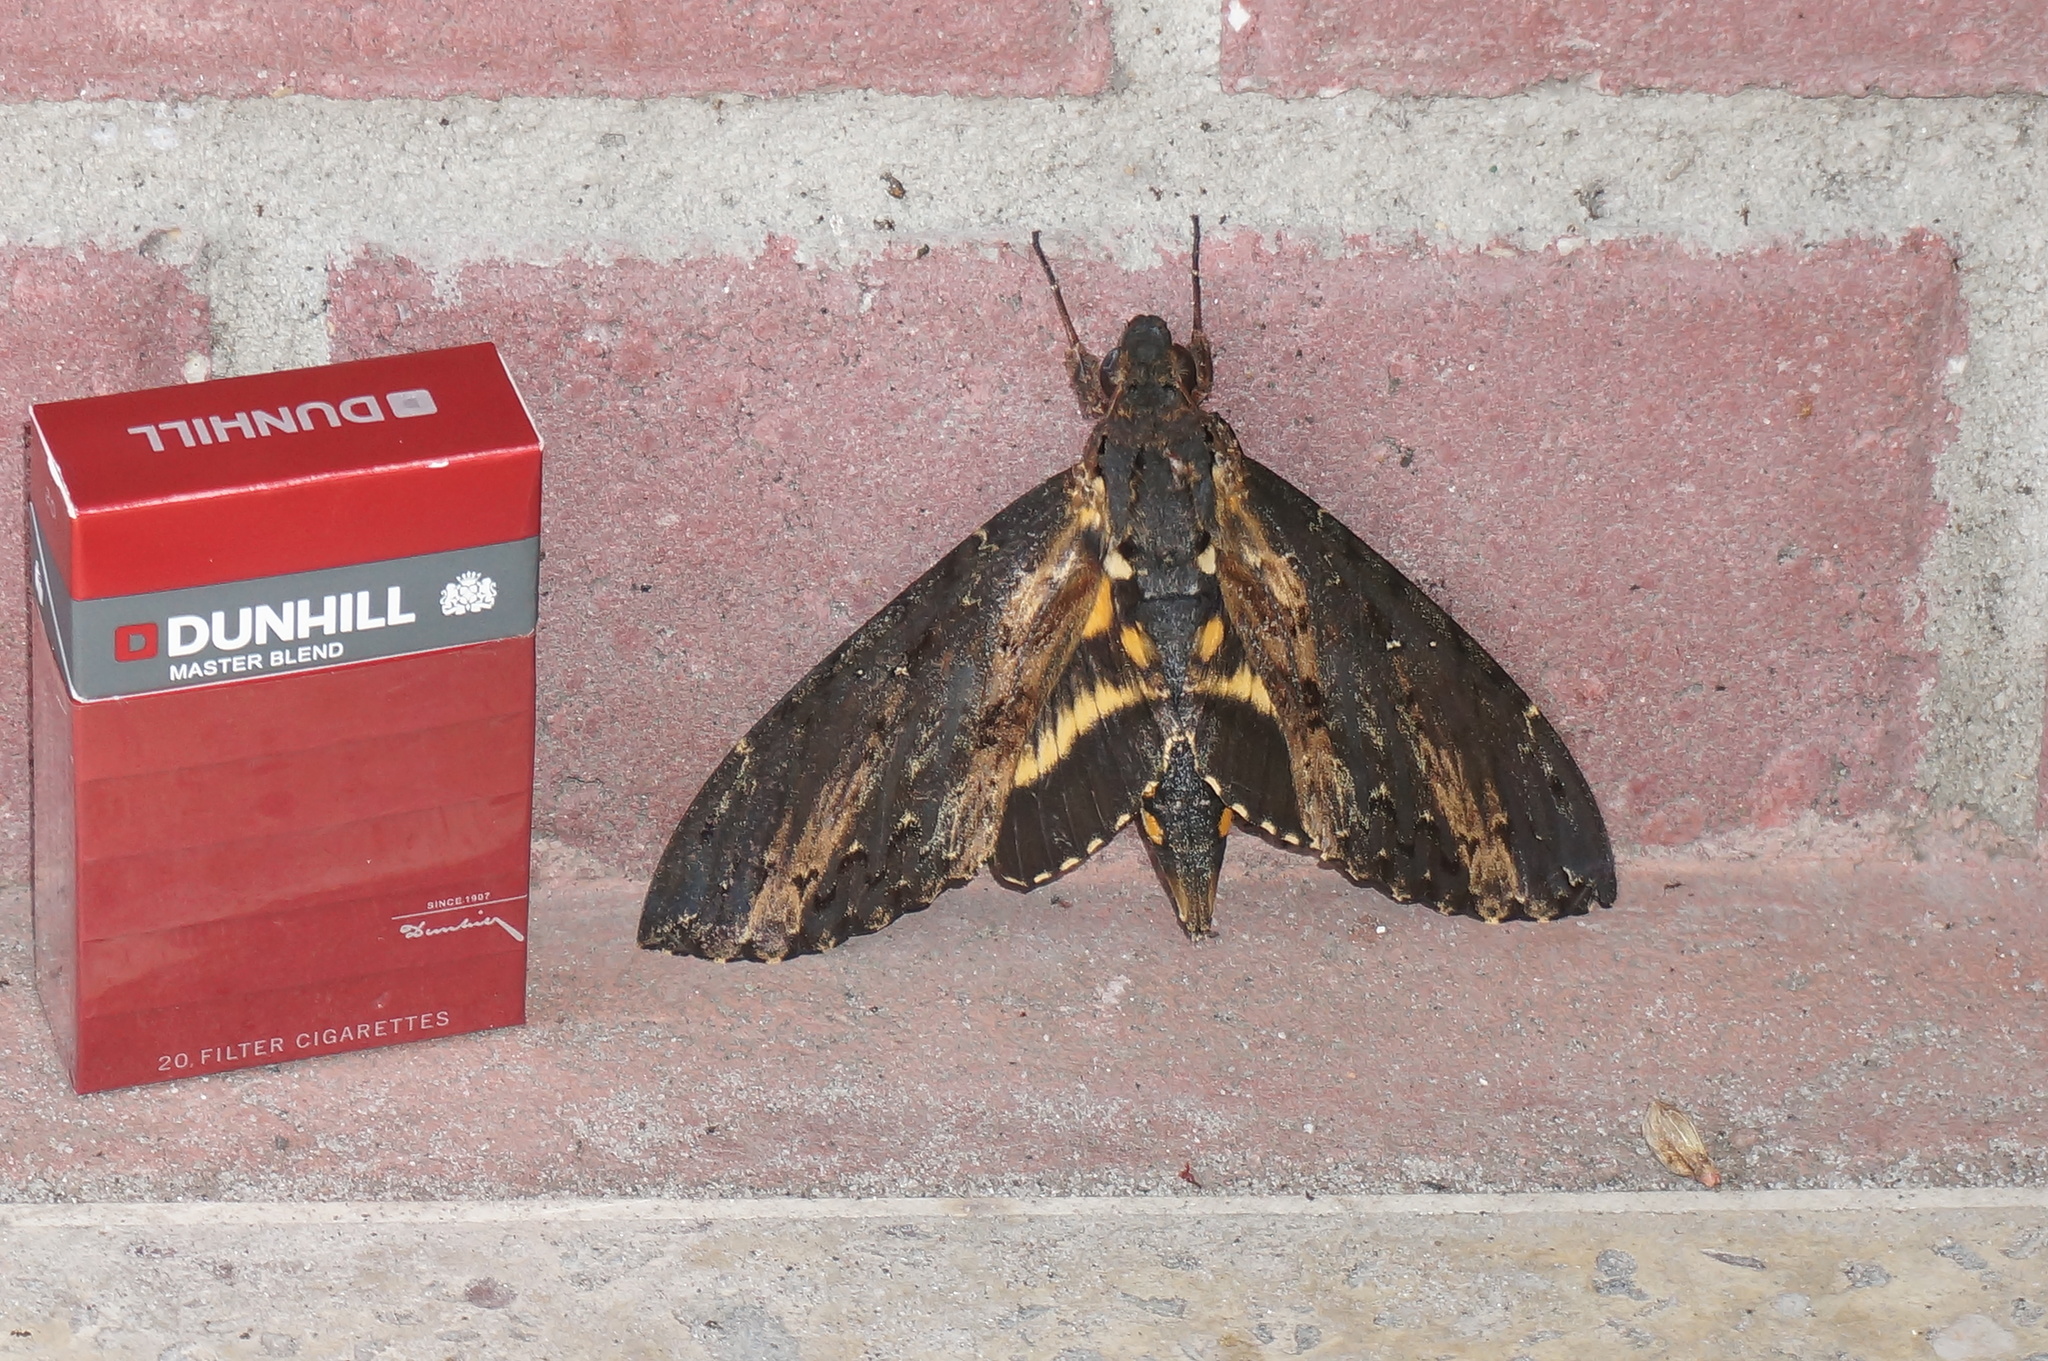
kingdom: Animalia
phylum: Arthropoda
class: Insecta
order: Lepidoptera
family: Sphingidae
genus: Neococytius
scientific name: Neococytius cluentius
